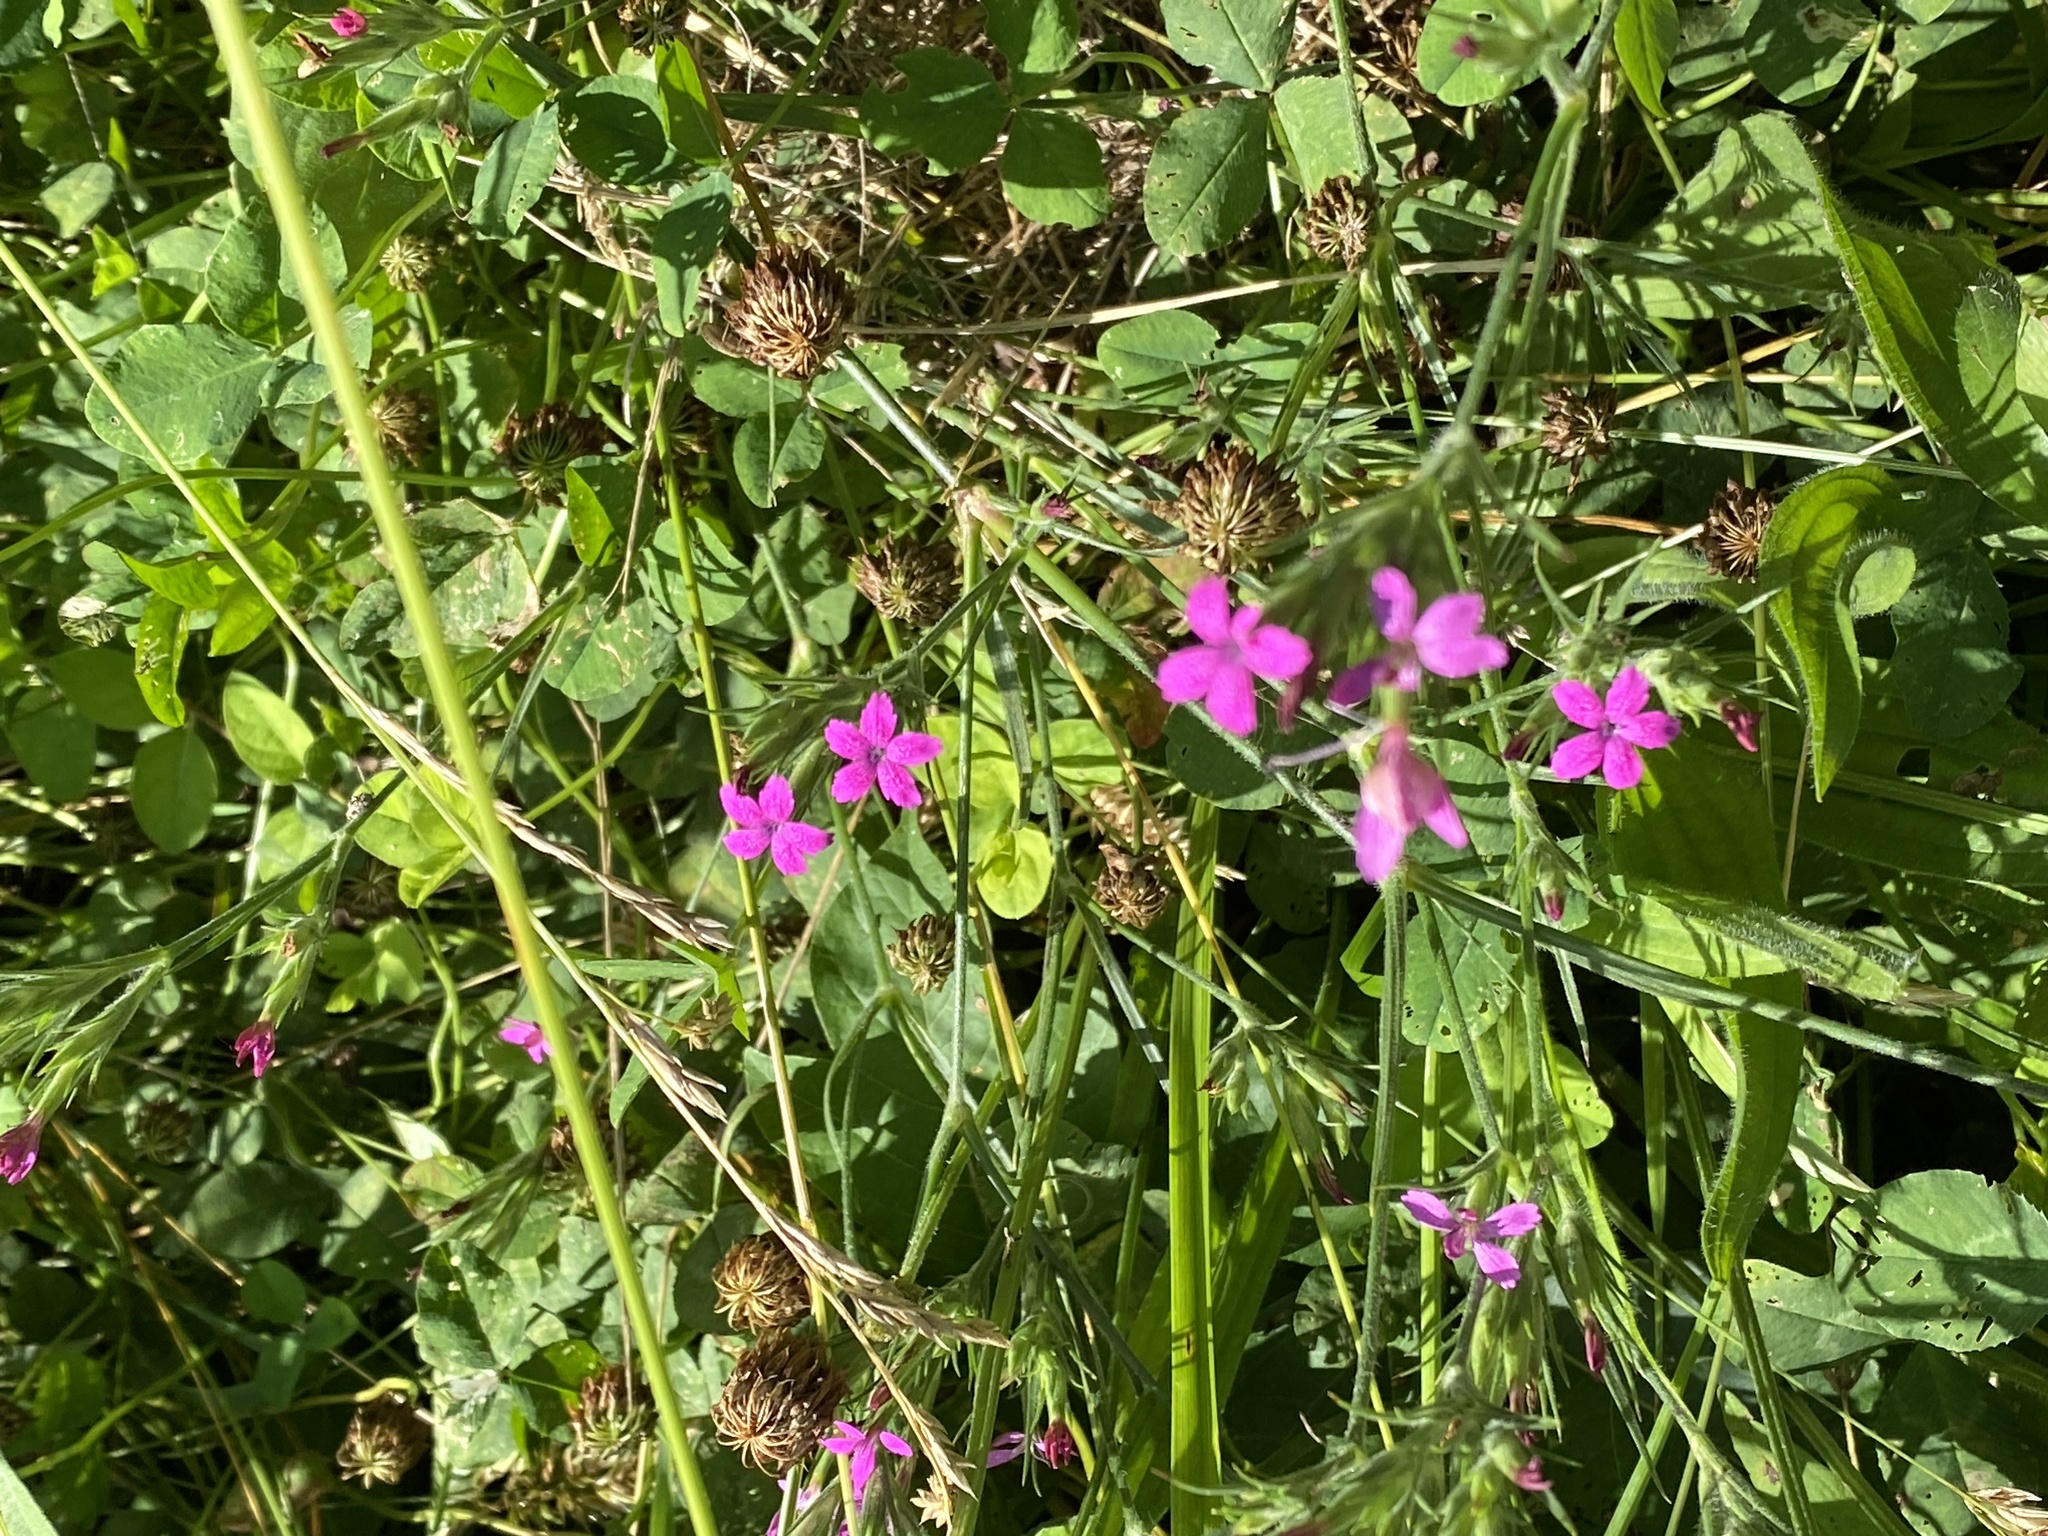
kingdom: Plantae
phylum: Tracheophyta
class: Magnoliopsida
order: Caryophyllales
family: Caryophyllaceae
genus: Dianthus
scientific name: Dianthus armeria
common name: Deptford pink
